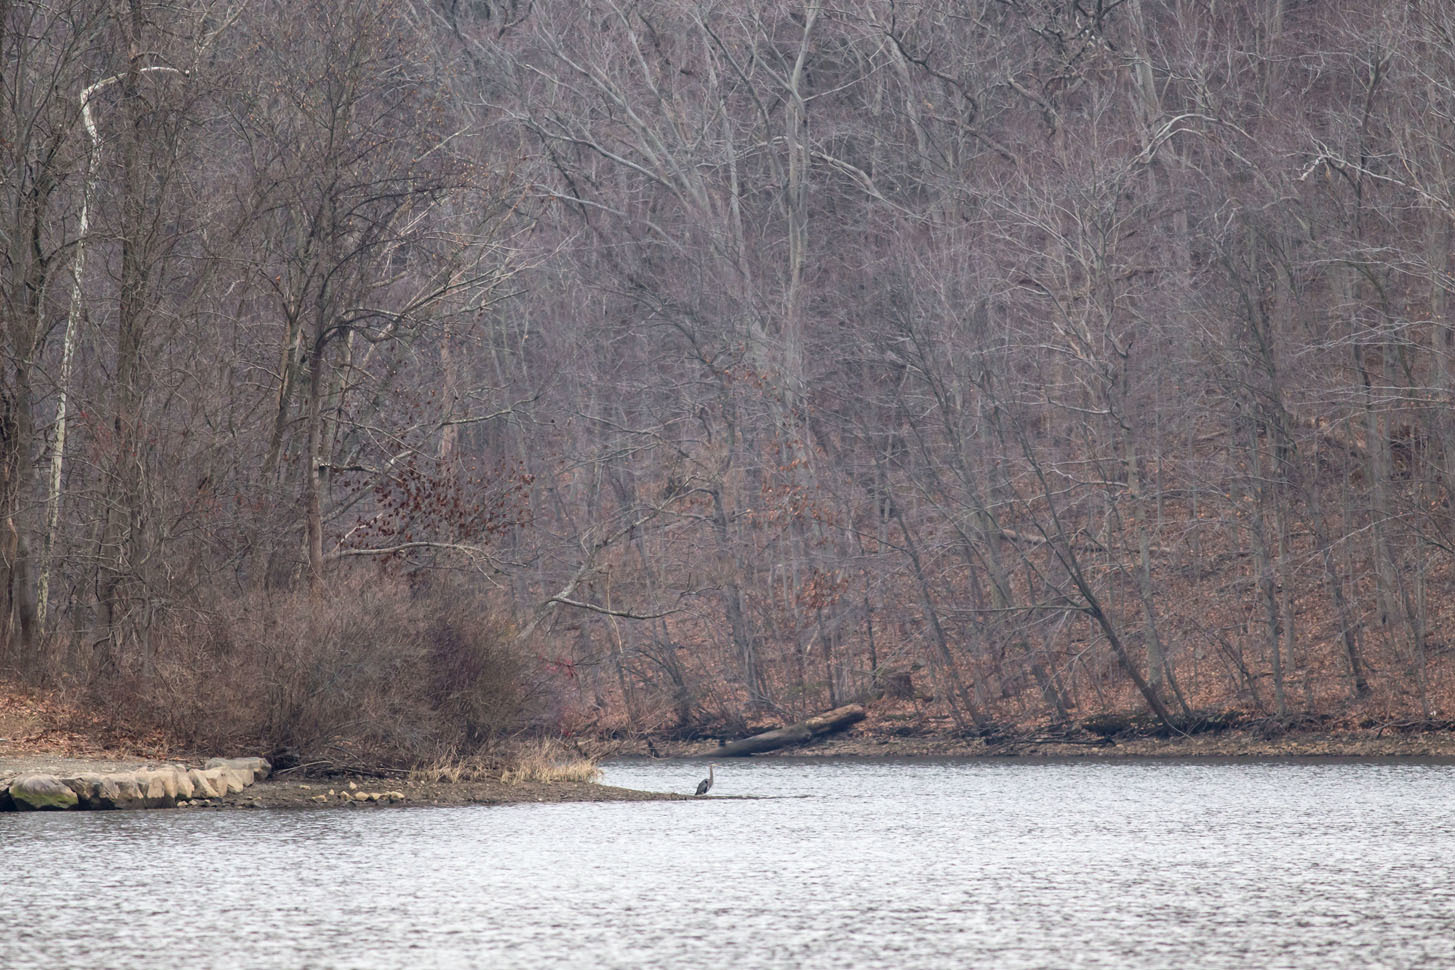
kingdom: Animalia
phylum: Chordata
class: Aves
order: Pelecaniformes
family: Ardeidae
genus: Ardea
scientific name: Ardea herodias
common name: Great blue heron
